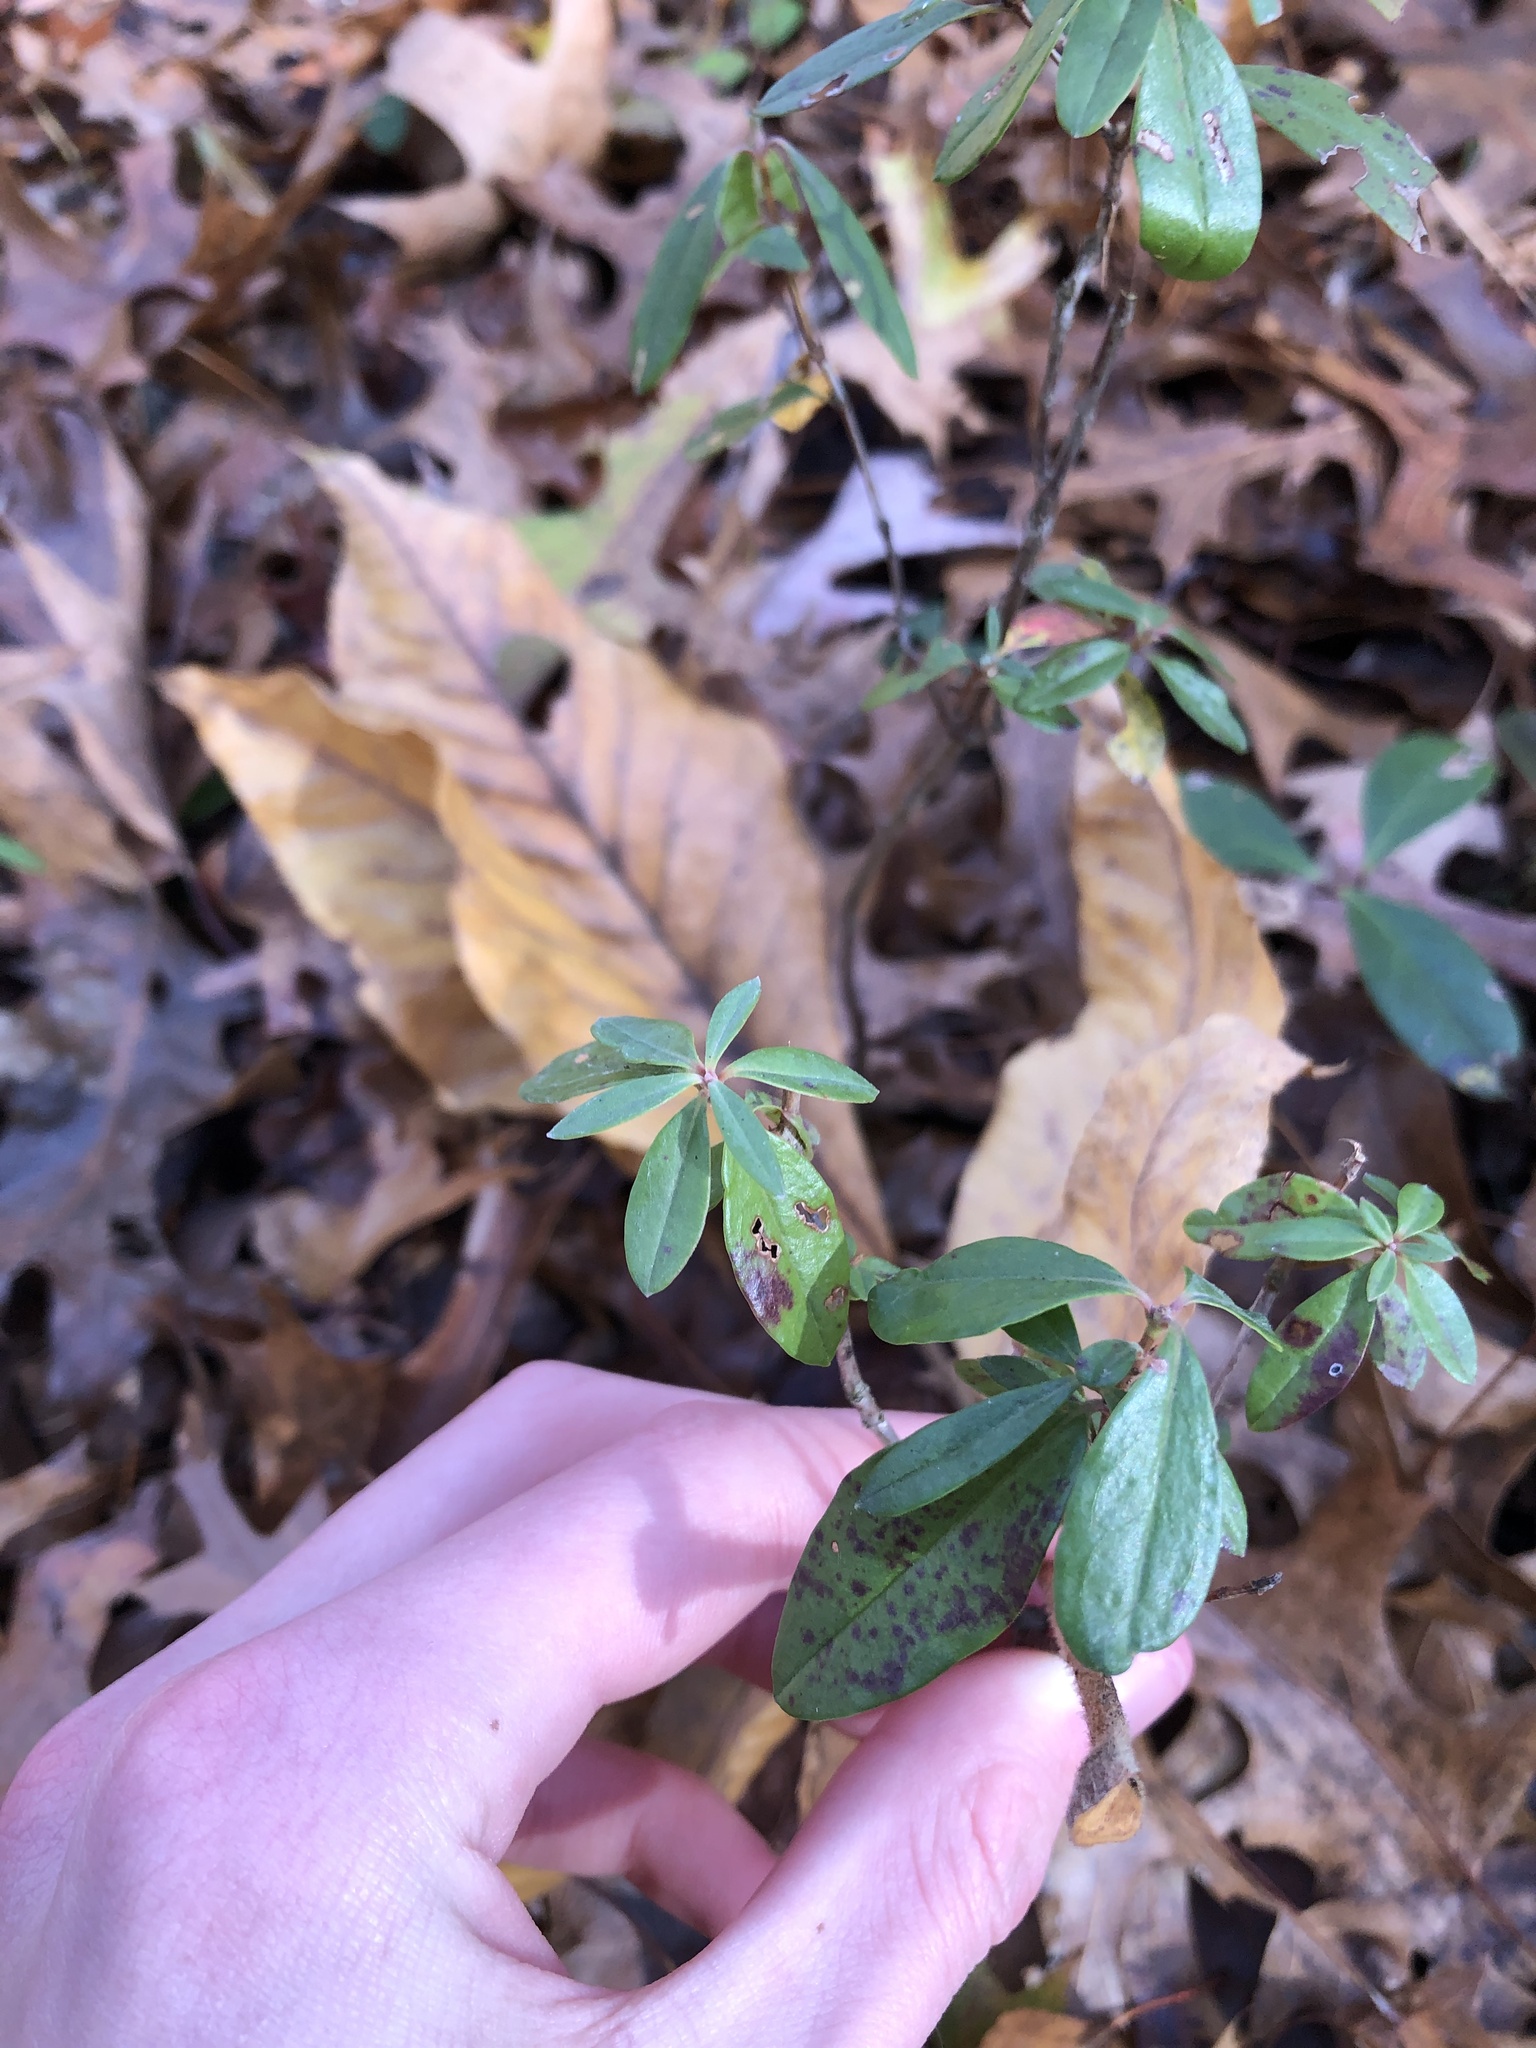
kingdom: Plantae
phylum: Tracheophyta
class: Magnoliopsida
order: Ericales
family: Ericaceae
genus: Kalmia
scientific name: Kalmia angustifolia
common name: Sheep-laurel
